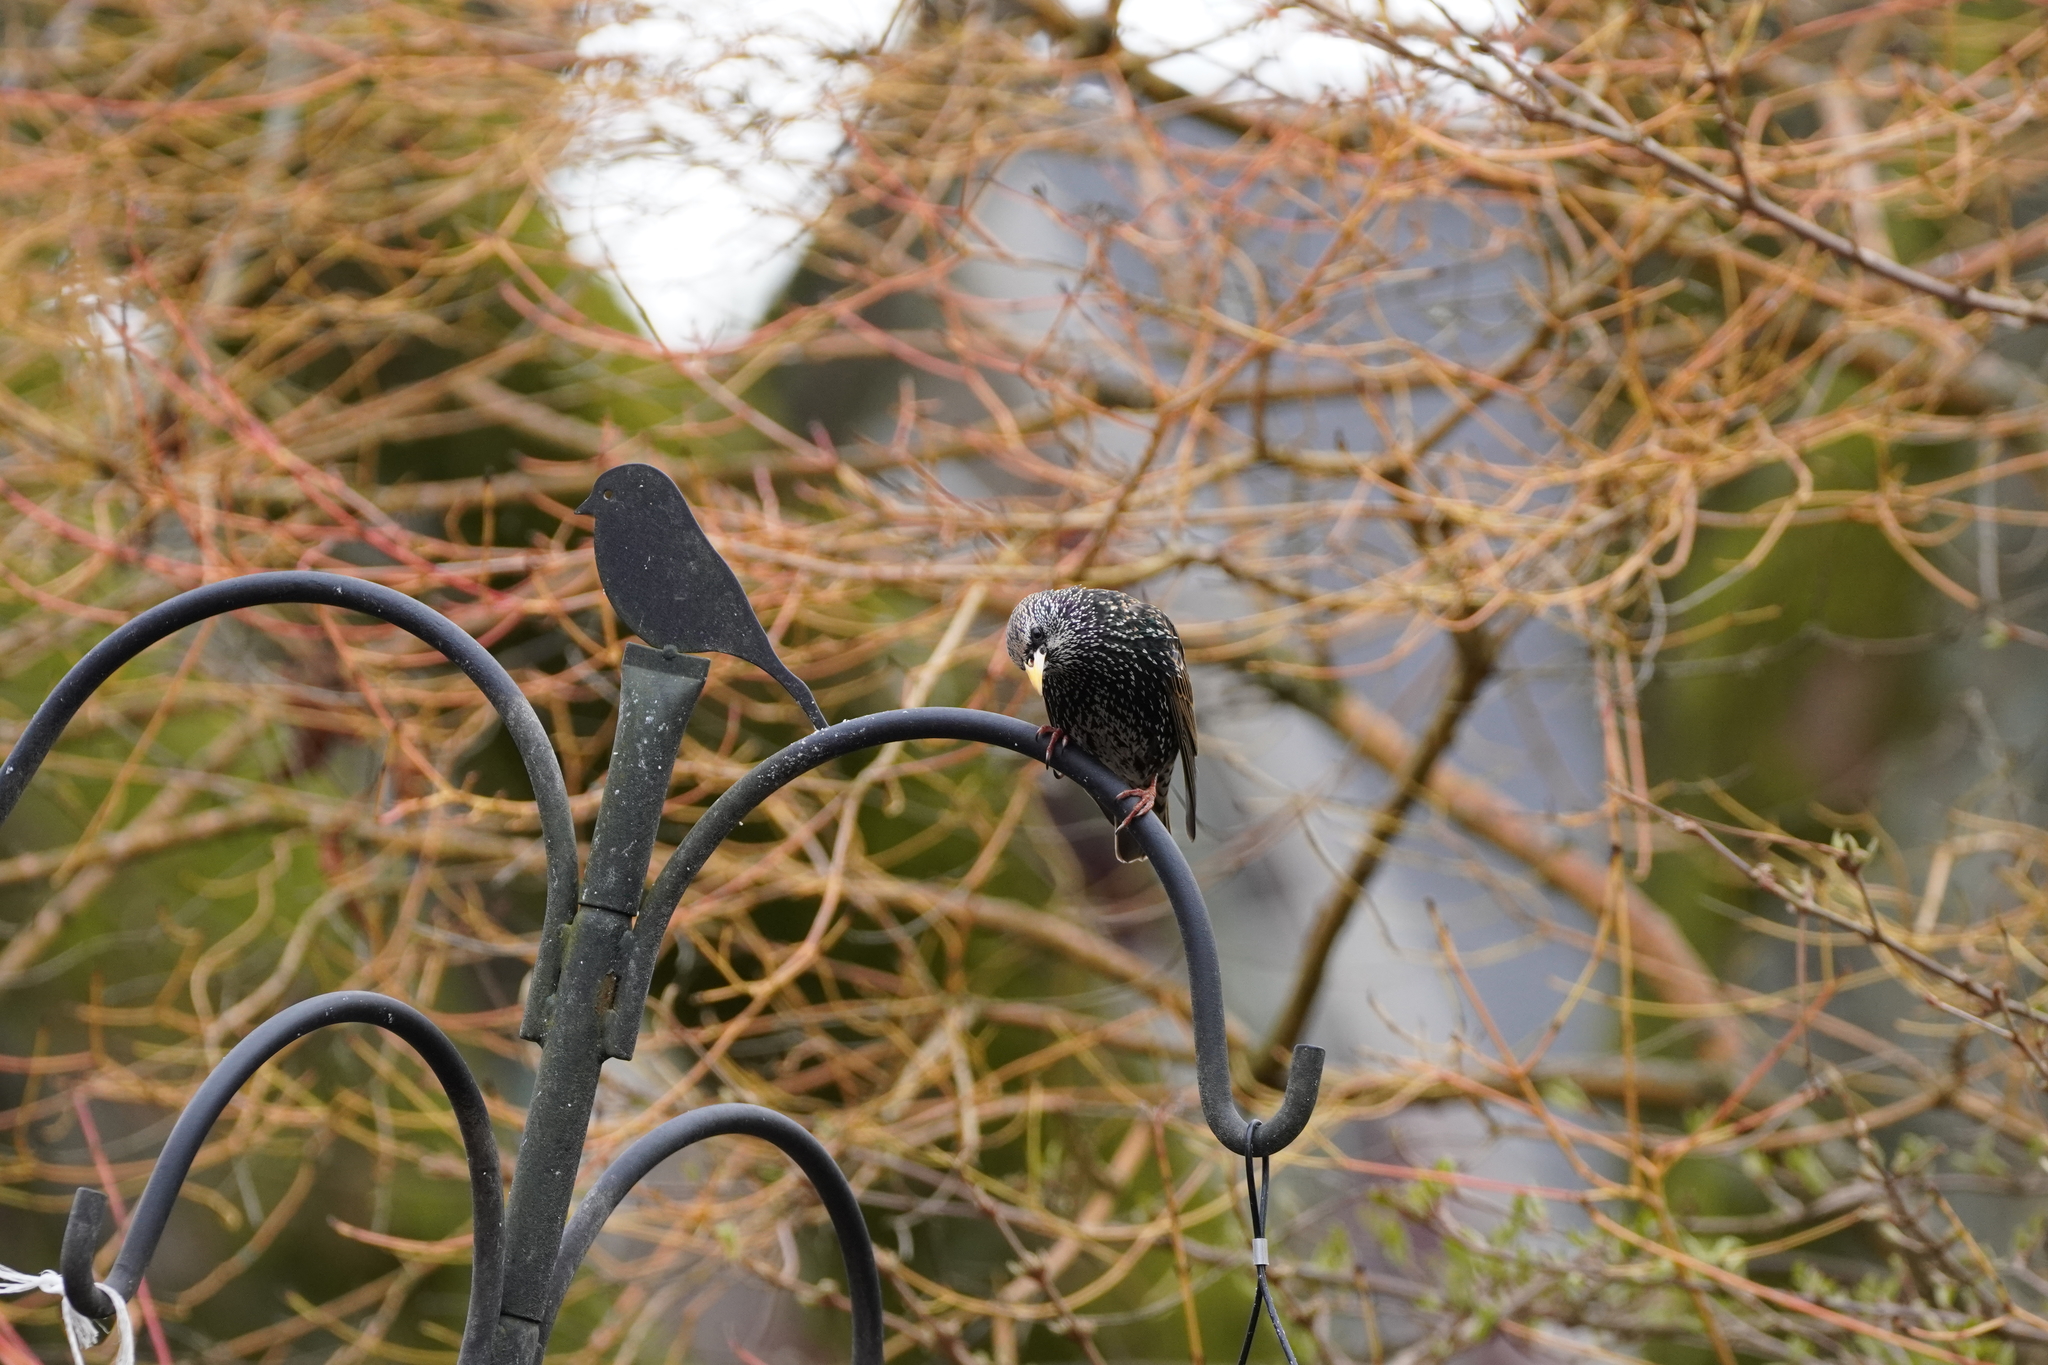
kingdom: Animalia
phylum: Chordata
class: Aves
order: Passeriformes
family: Sturnidae
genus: Sturnus
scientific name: Sturnus vulgaris
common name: Common starling
